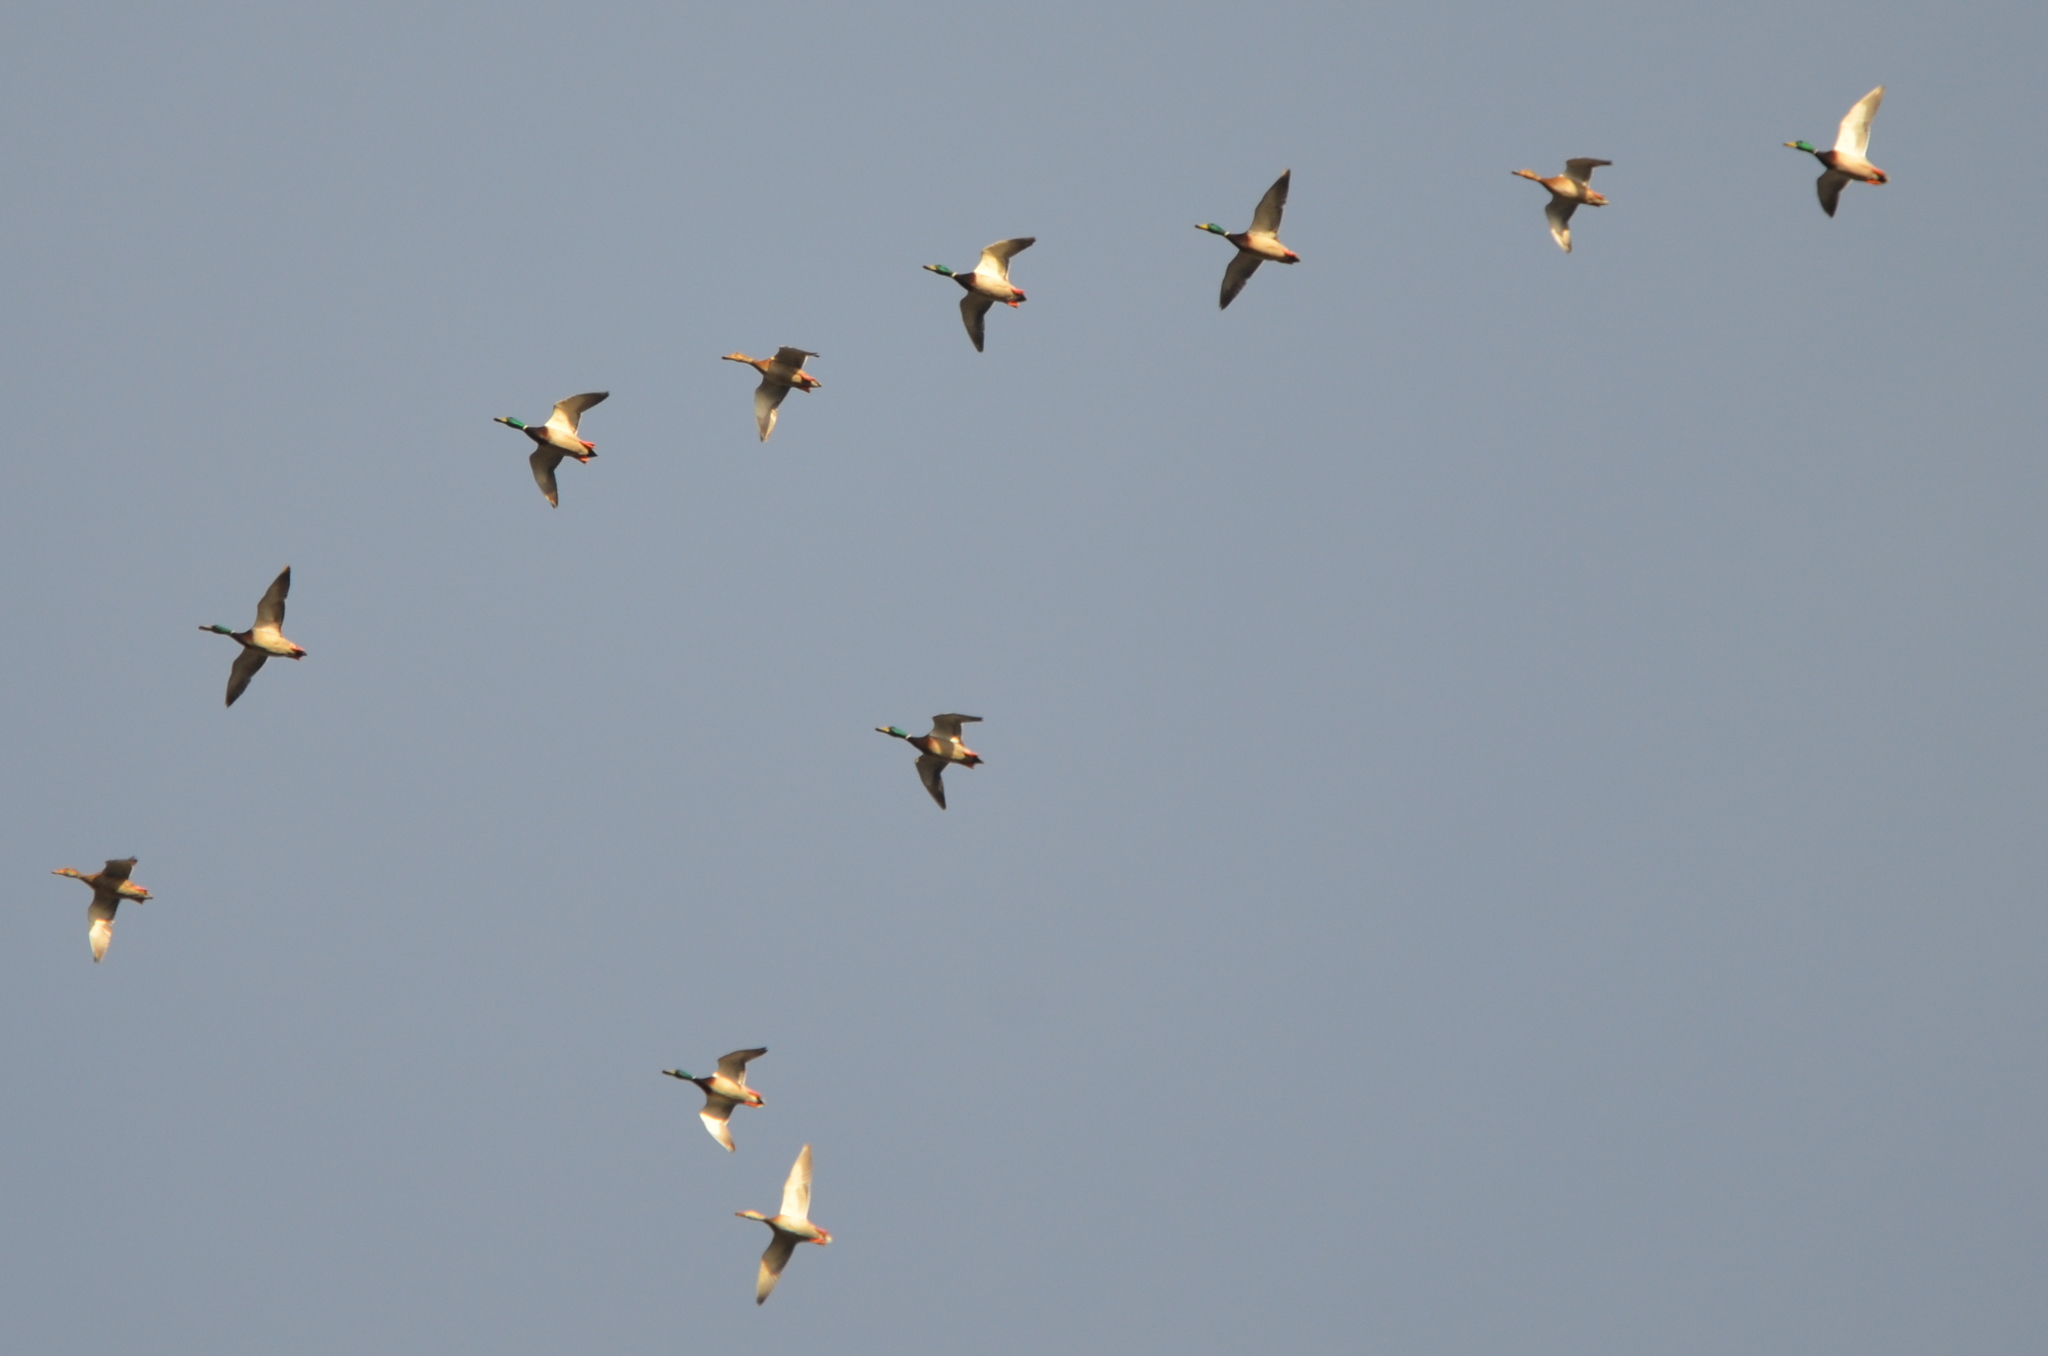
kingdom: Animalia
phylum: Chordata
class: Aves
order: Anseriformes
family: Anatidae
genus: Anas
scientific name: Anas platyrhynchos
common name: Mallard
